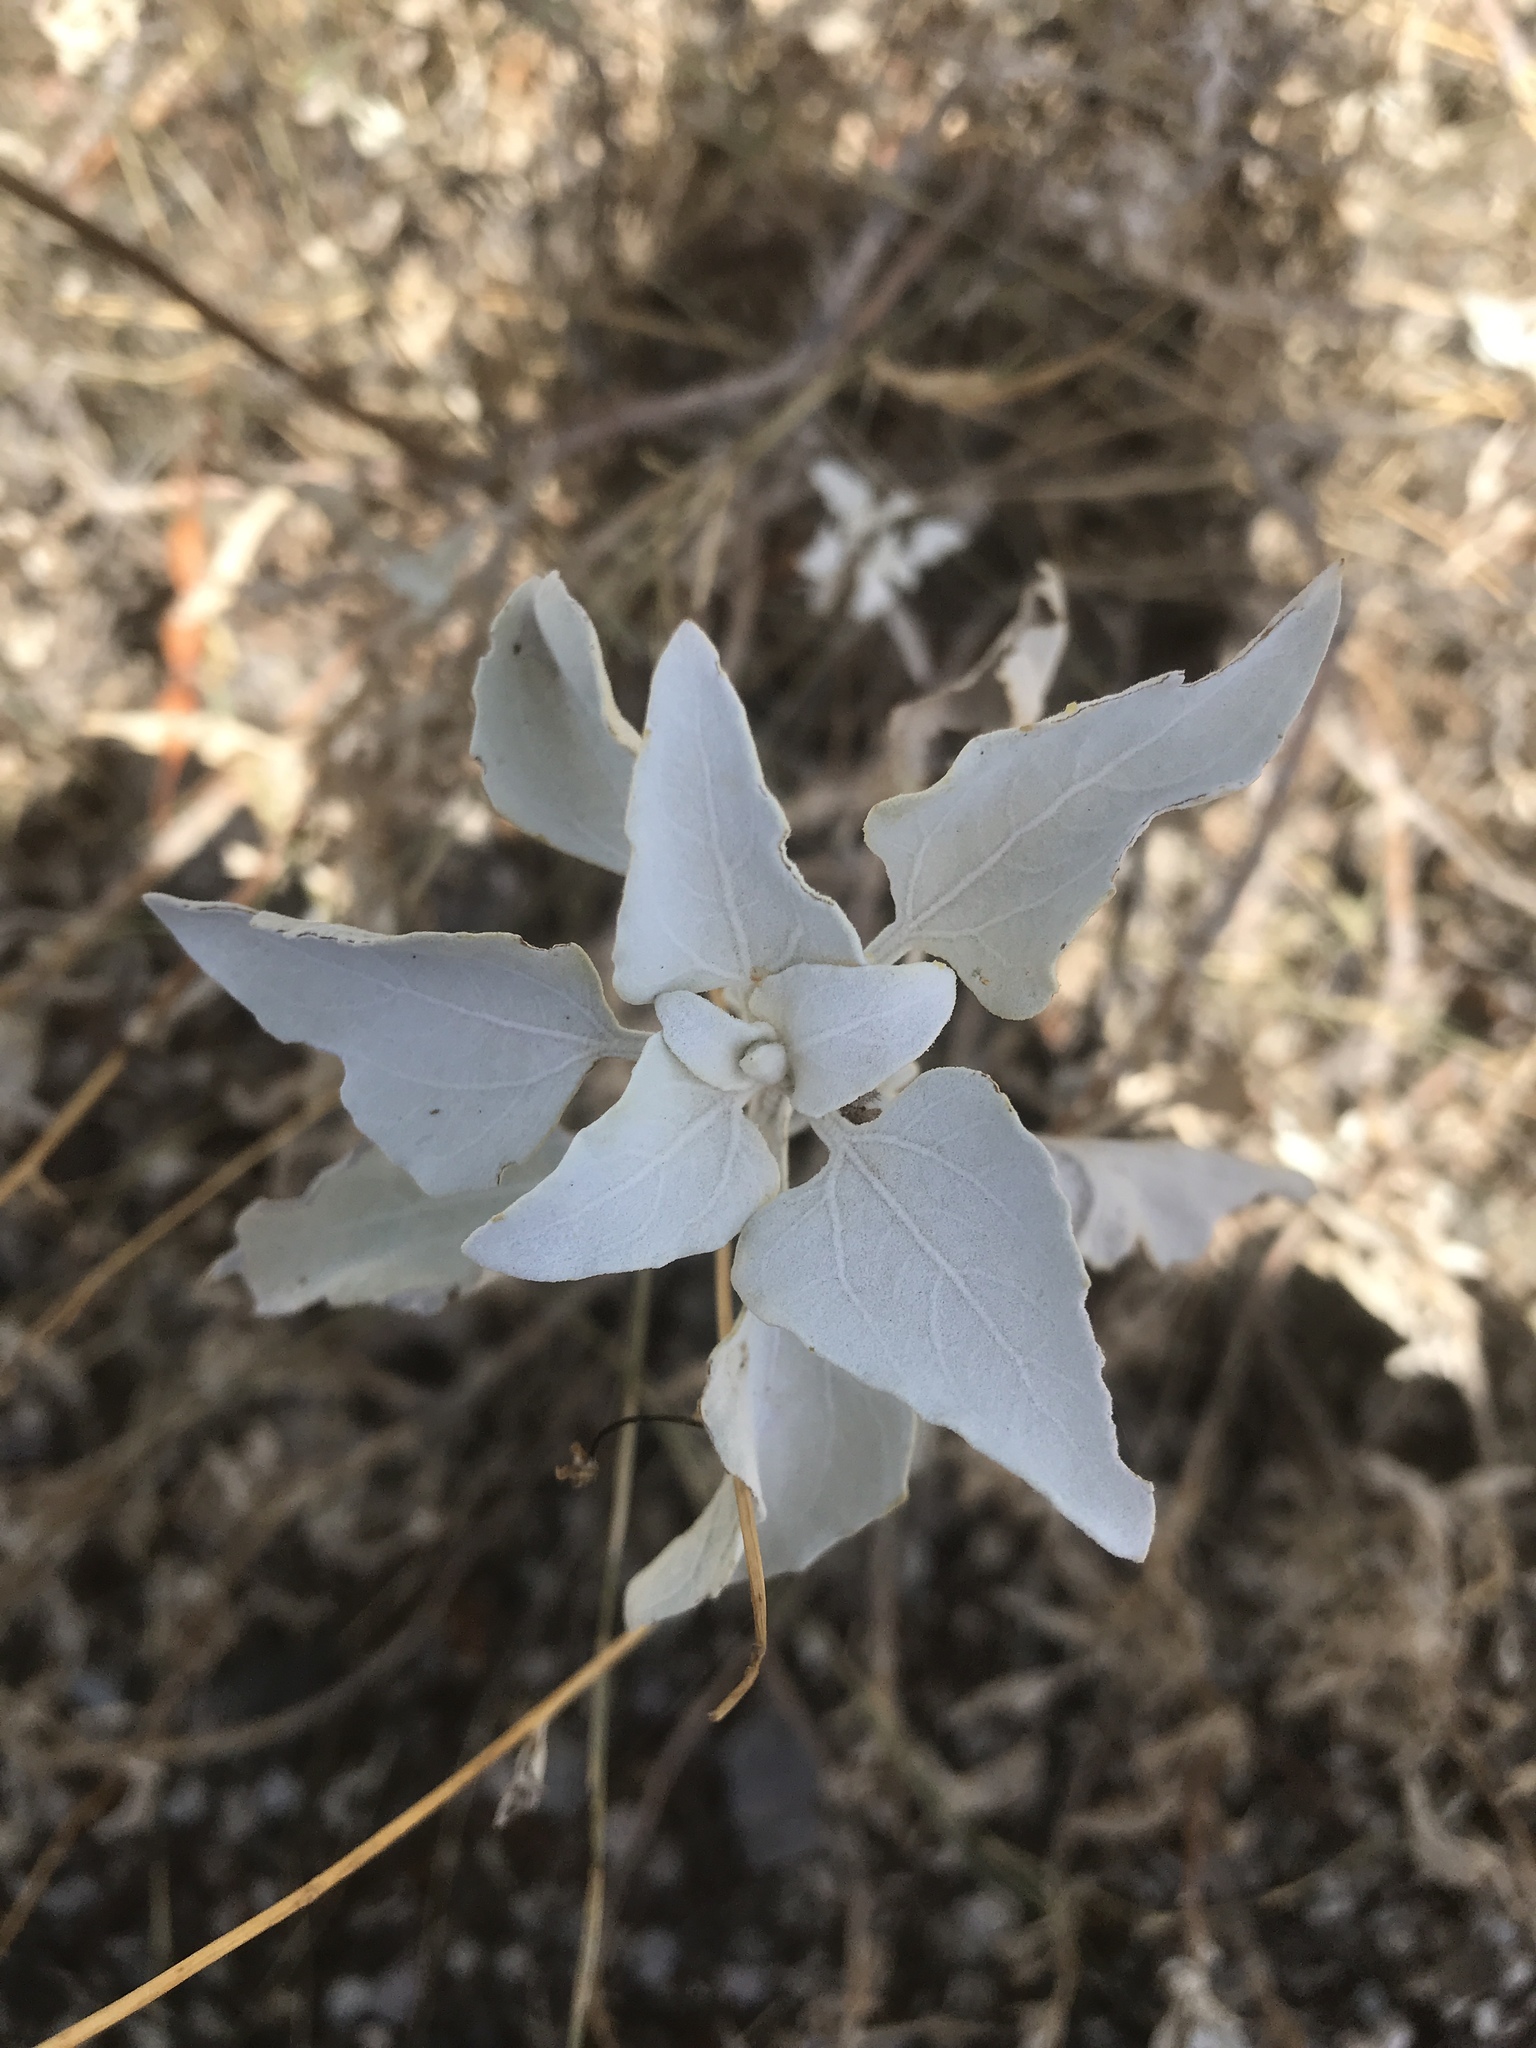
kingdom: Plantae
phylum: Tracheophyta
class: Magnoliopsida
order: Asterales
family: Asteraceae
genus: Encelia
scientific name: Encelia farinosa
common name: Brittlebush
